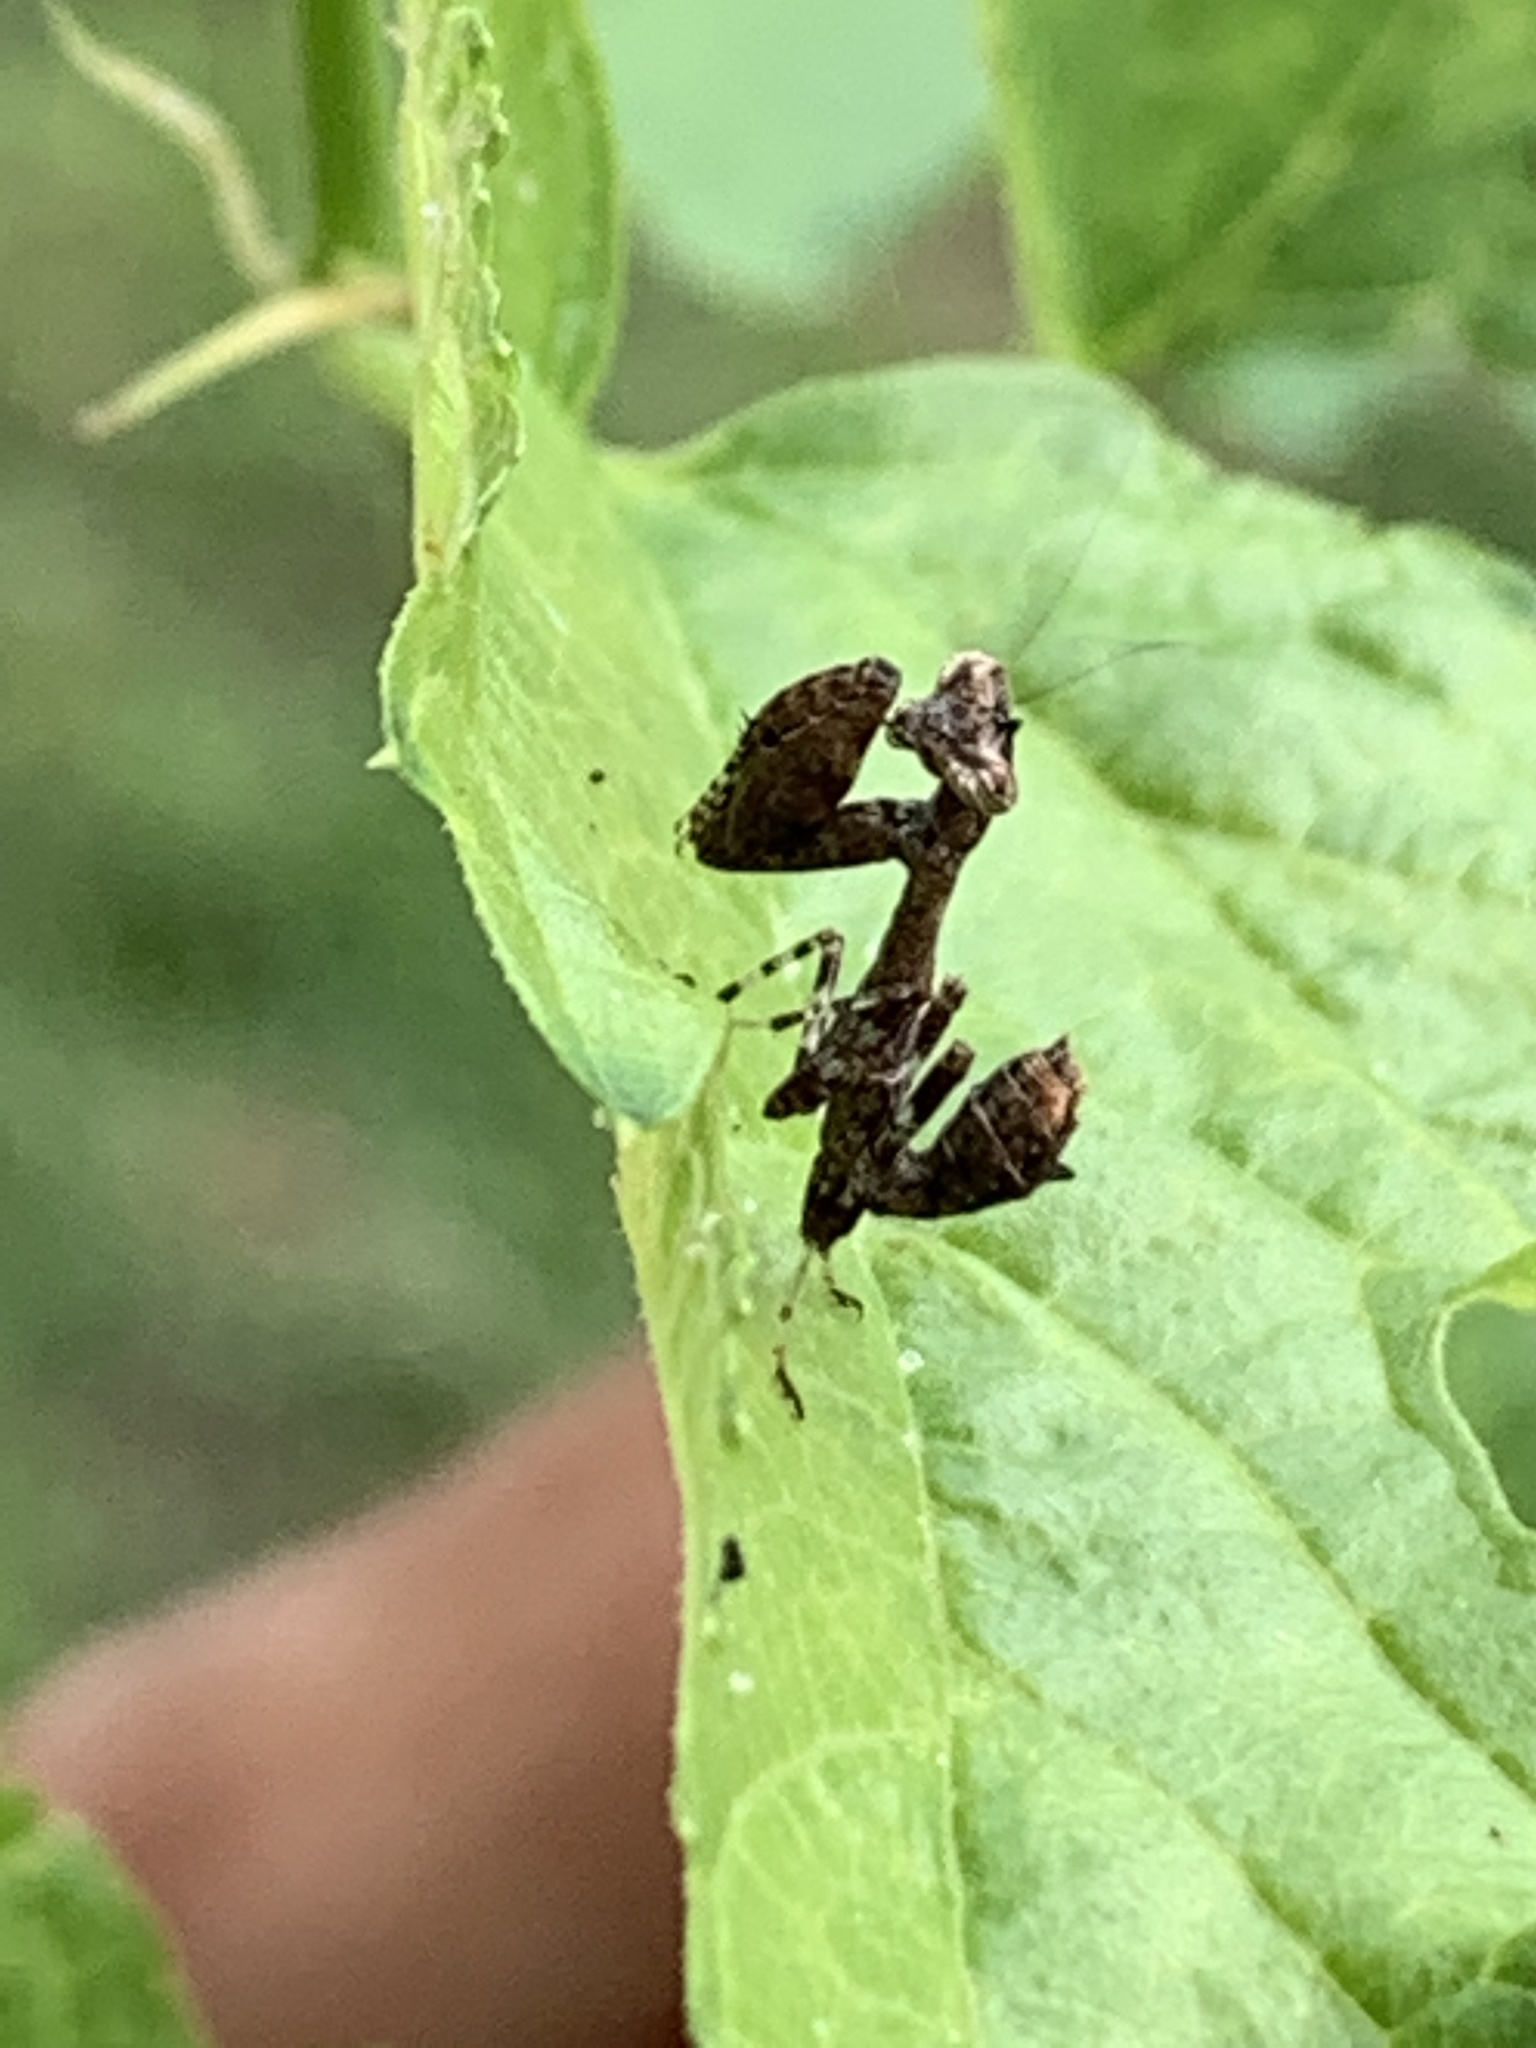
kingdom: Animalia
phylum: Arthropoda
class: Insecta
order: Mantodea
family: Hymenopodidae
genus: Acromantis
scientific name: Acromantis japonica
